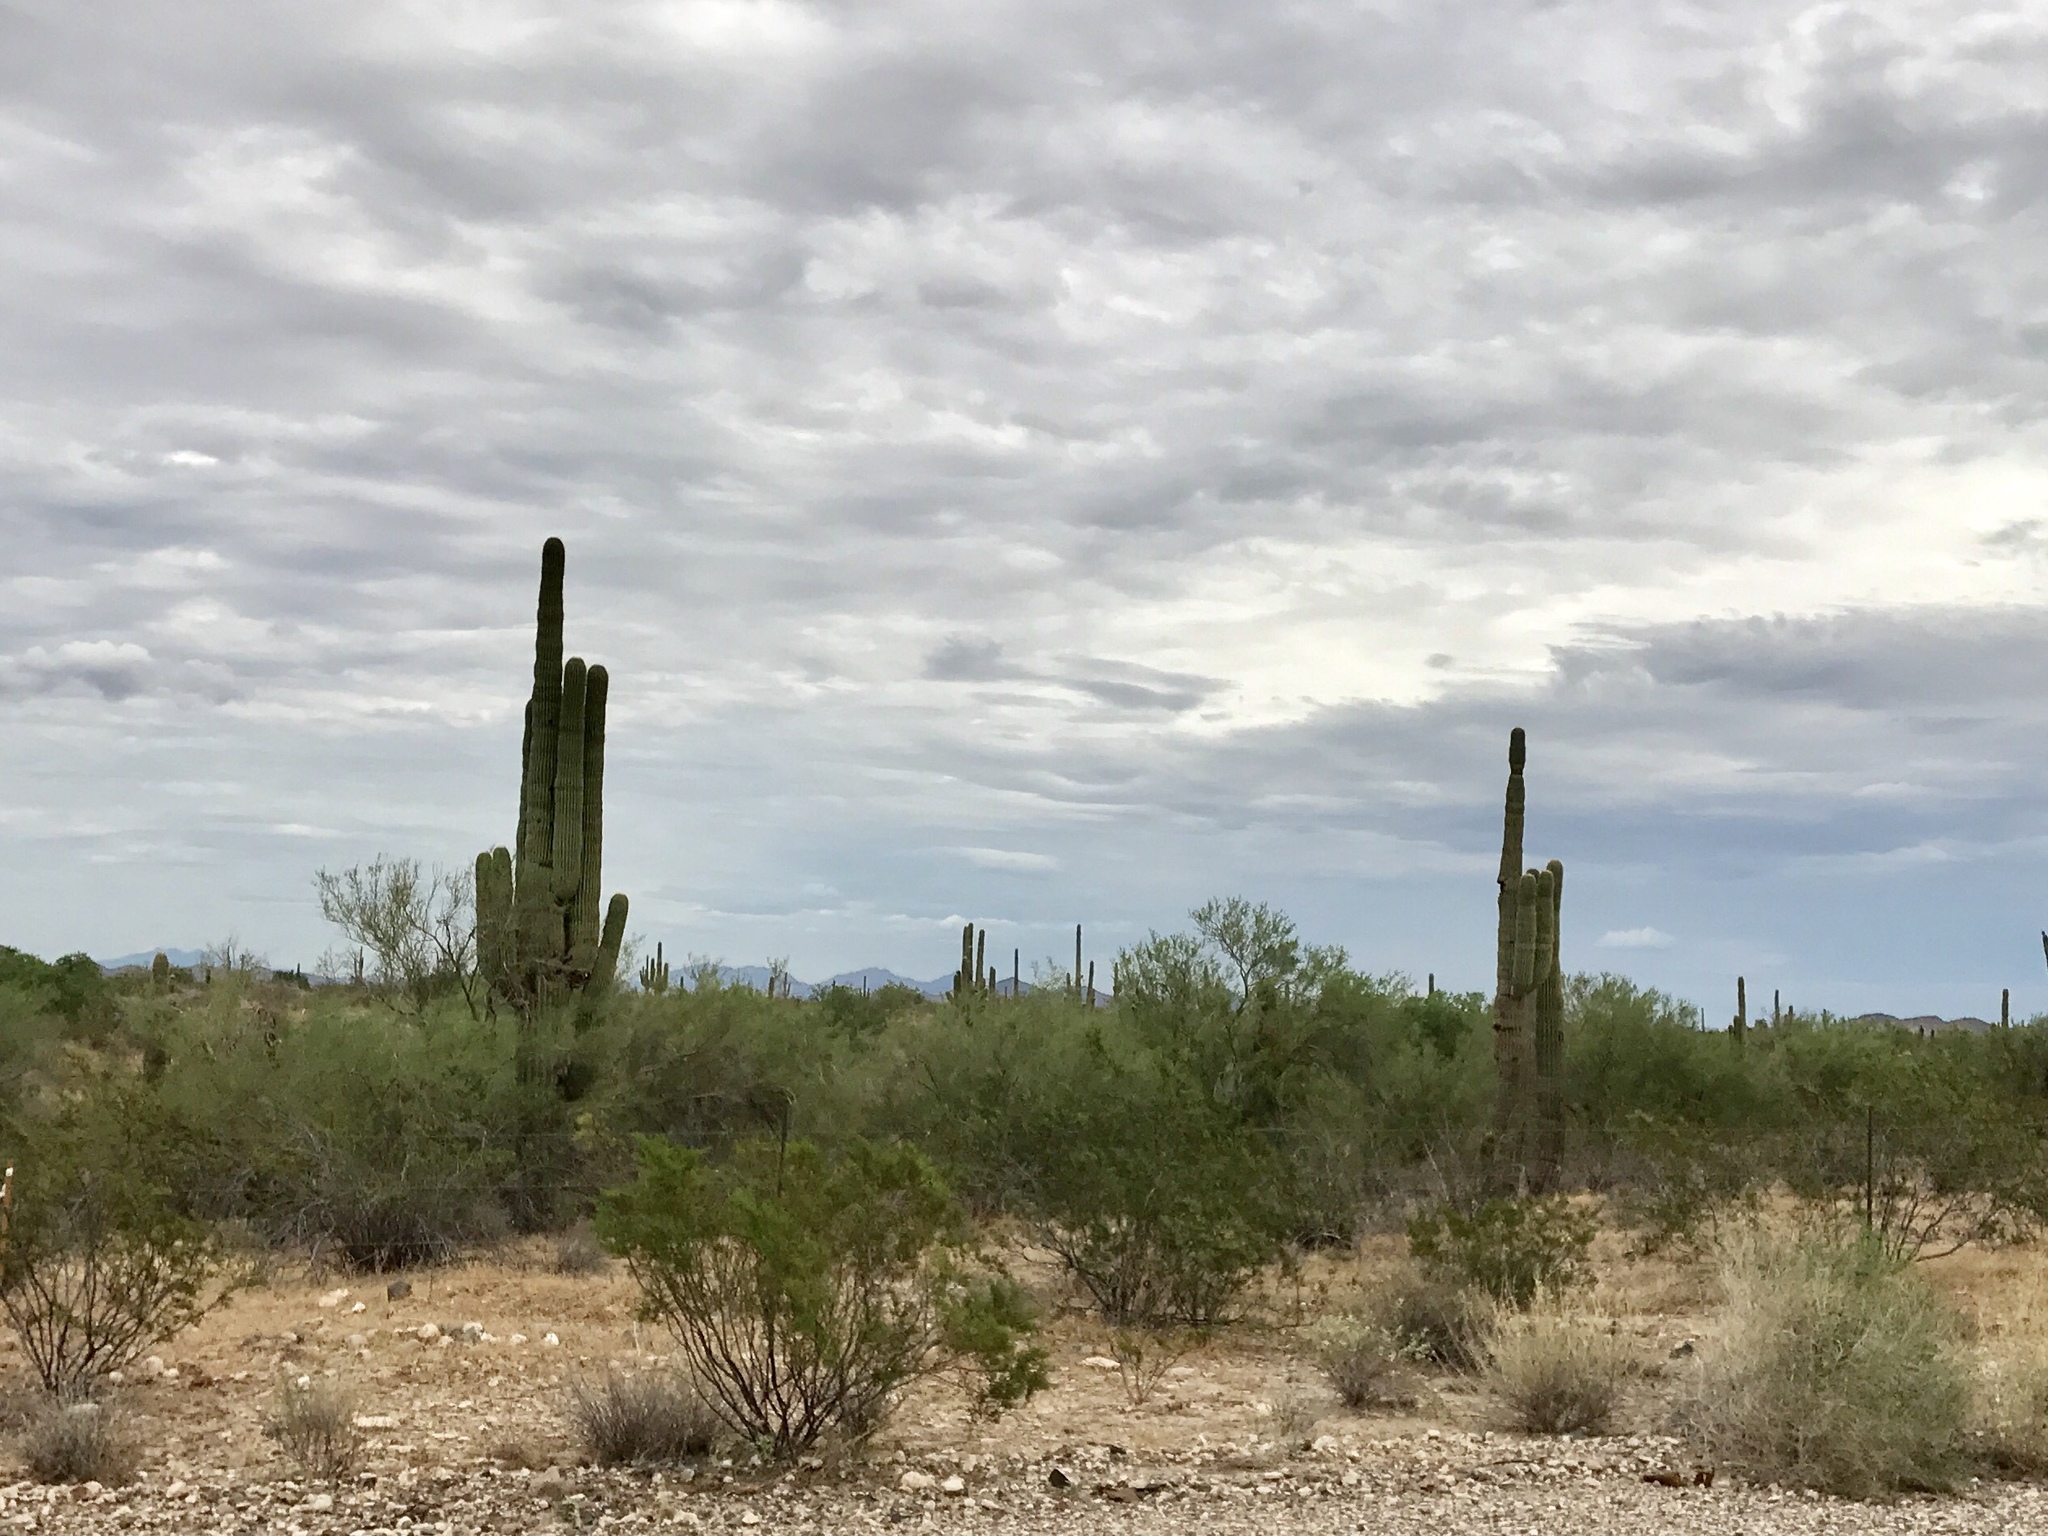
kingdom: Plantae
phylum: Tracheophyta
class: Magnoliopsida
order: Caryophyllales
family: Cactaceae
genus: Carnegiea
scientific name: Carnegiea gigantea
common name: Saguaro
